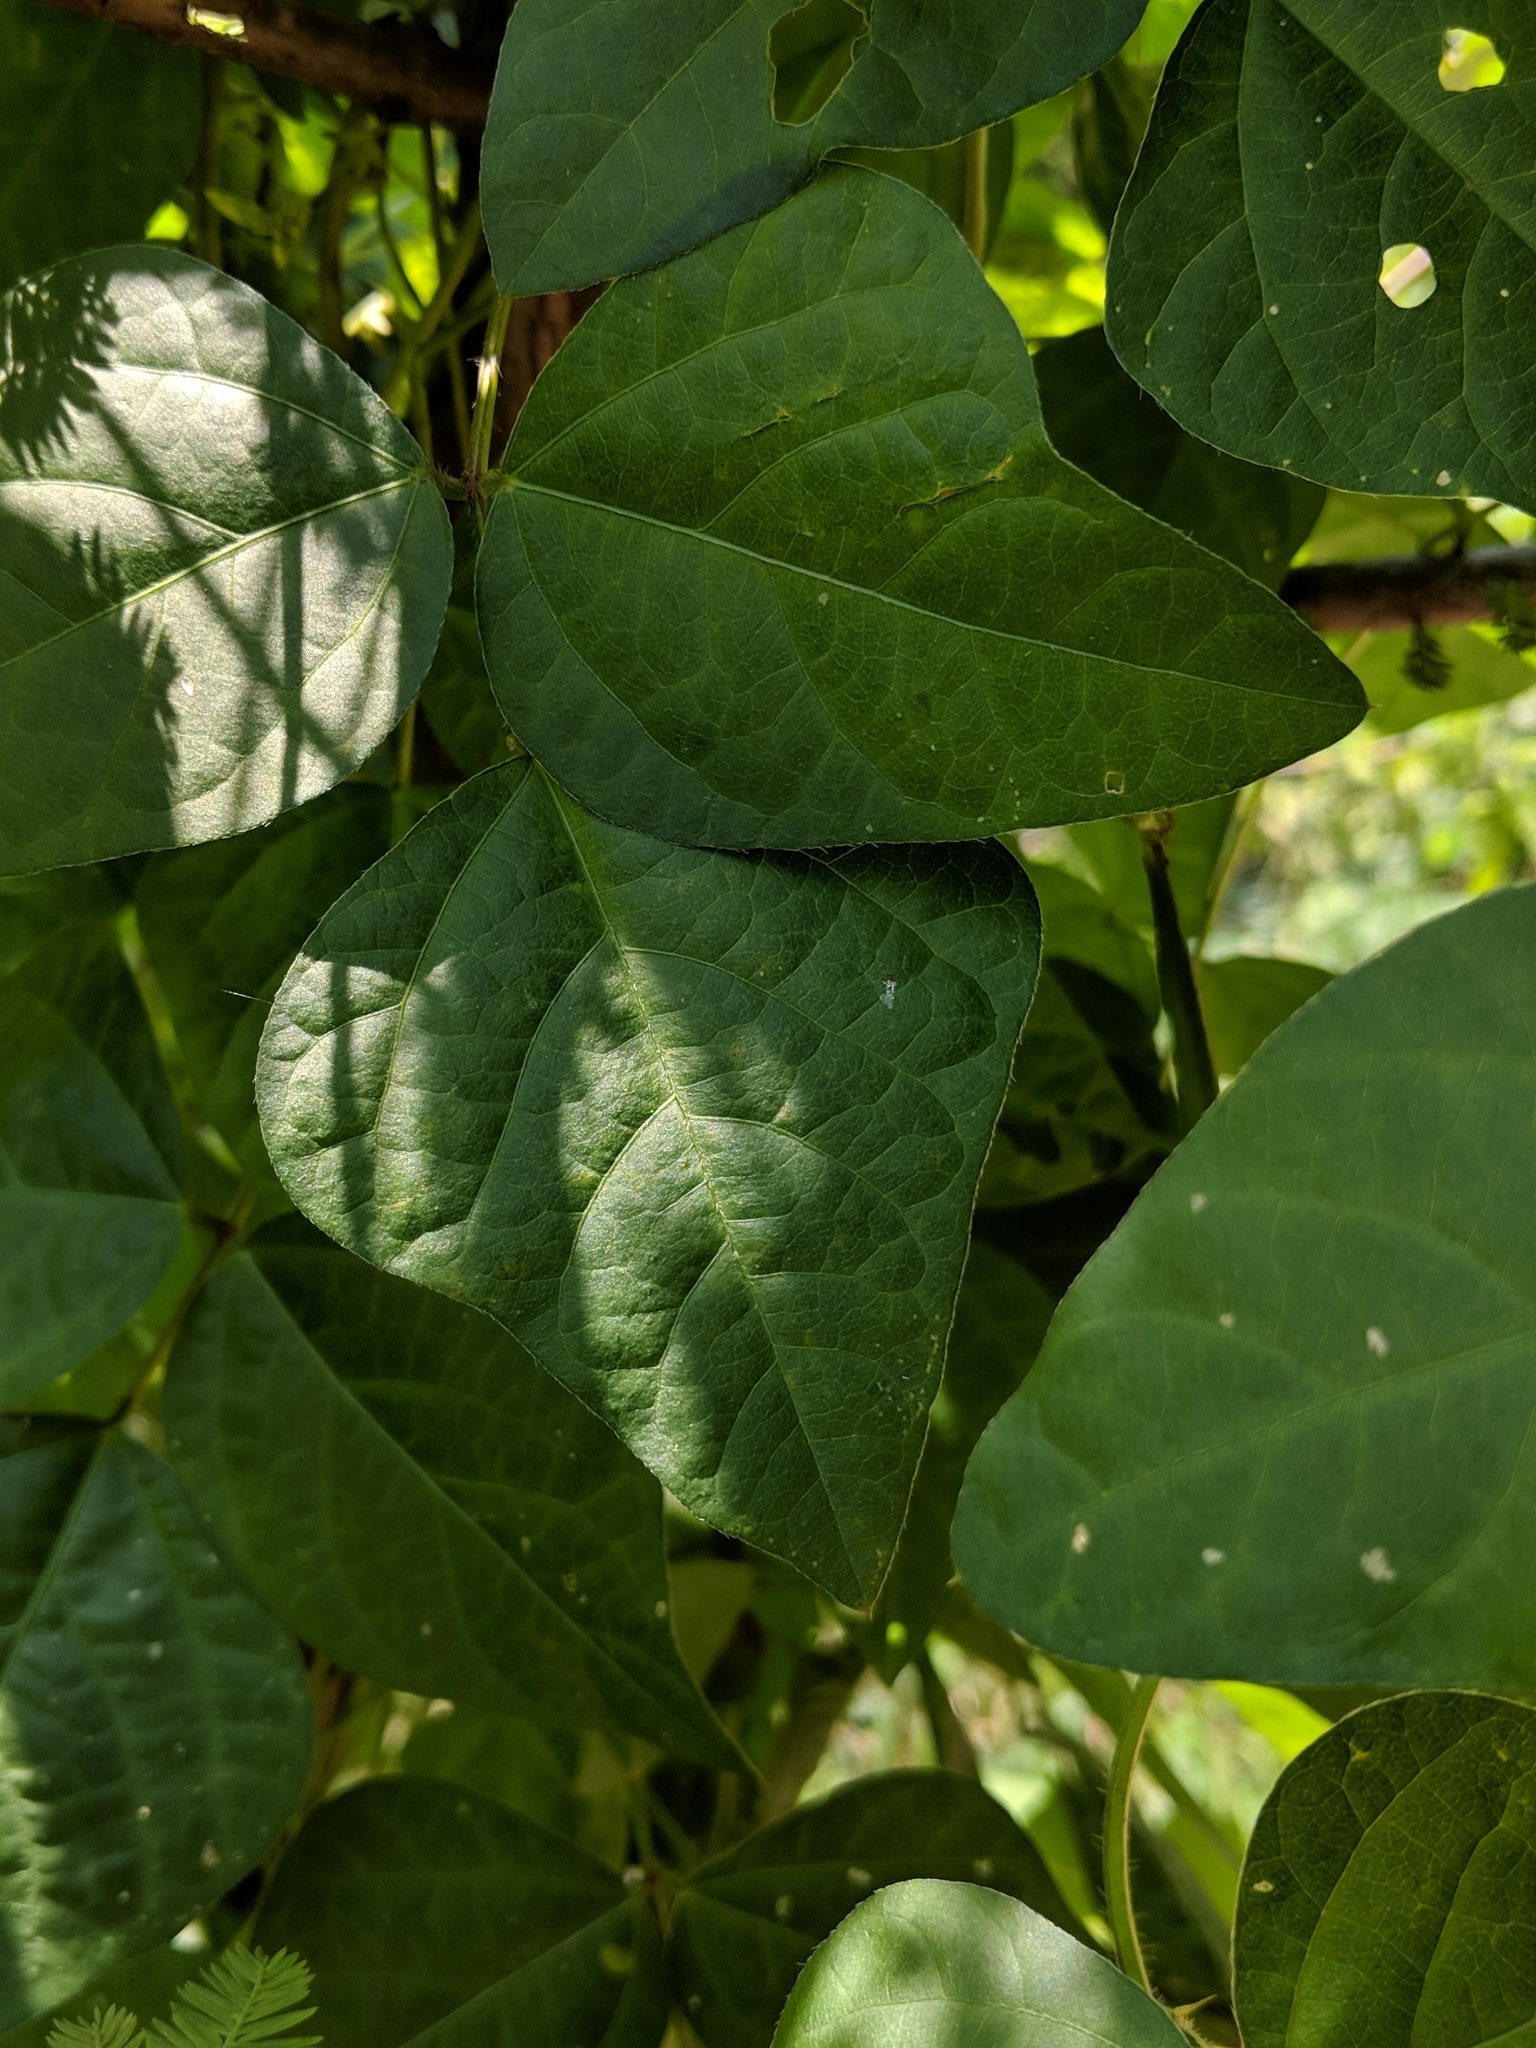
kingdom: Plantae
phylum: Tracheophyta
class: Magnoliopsida
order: Fabales
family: Fabaceae
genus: Strophostyles
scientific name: Strophostyles helvola
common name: Trailing wild bean
